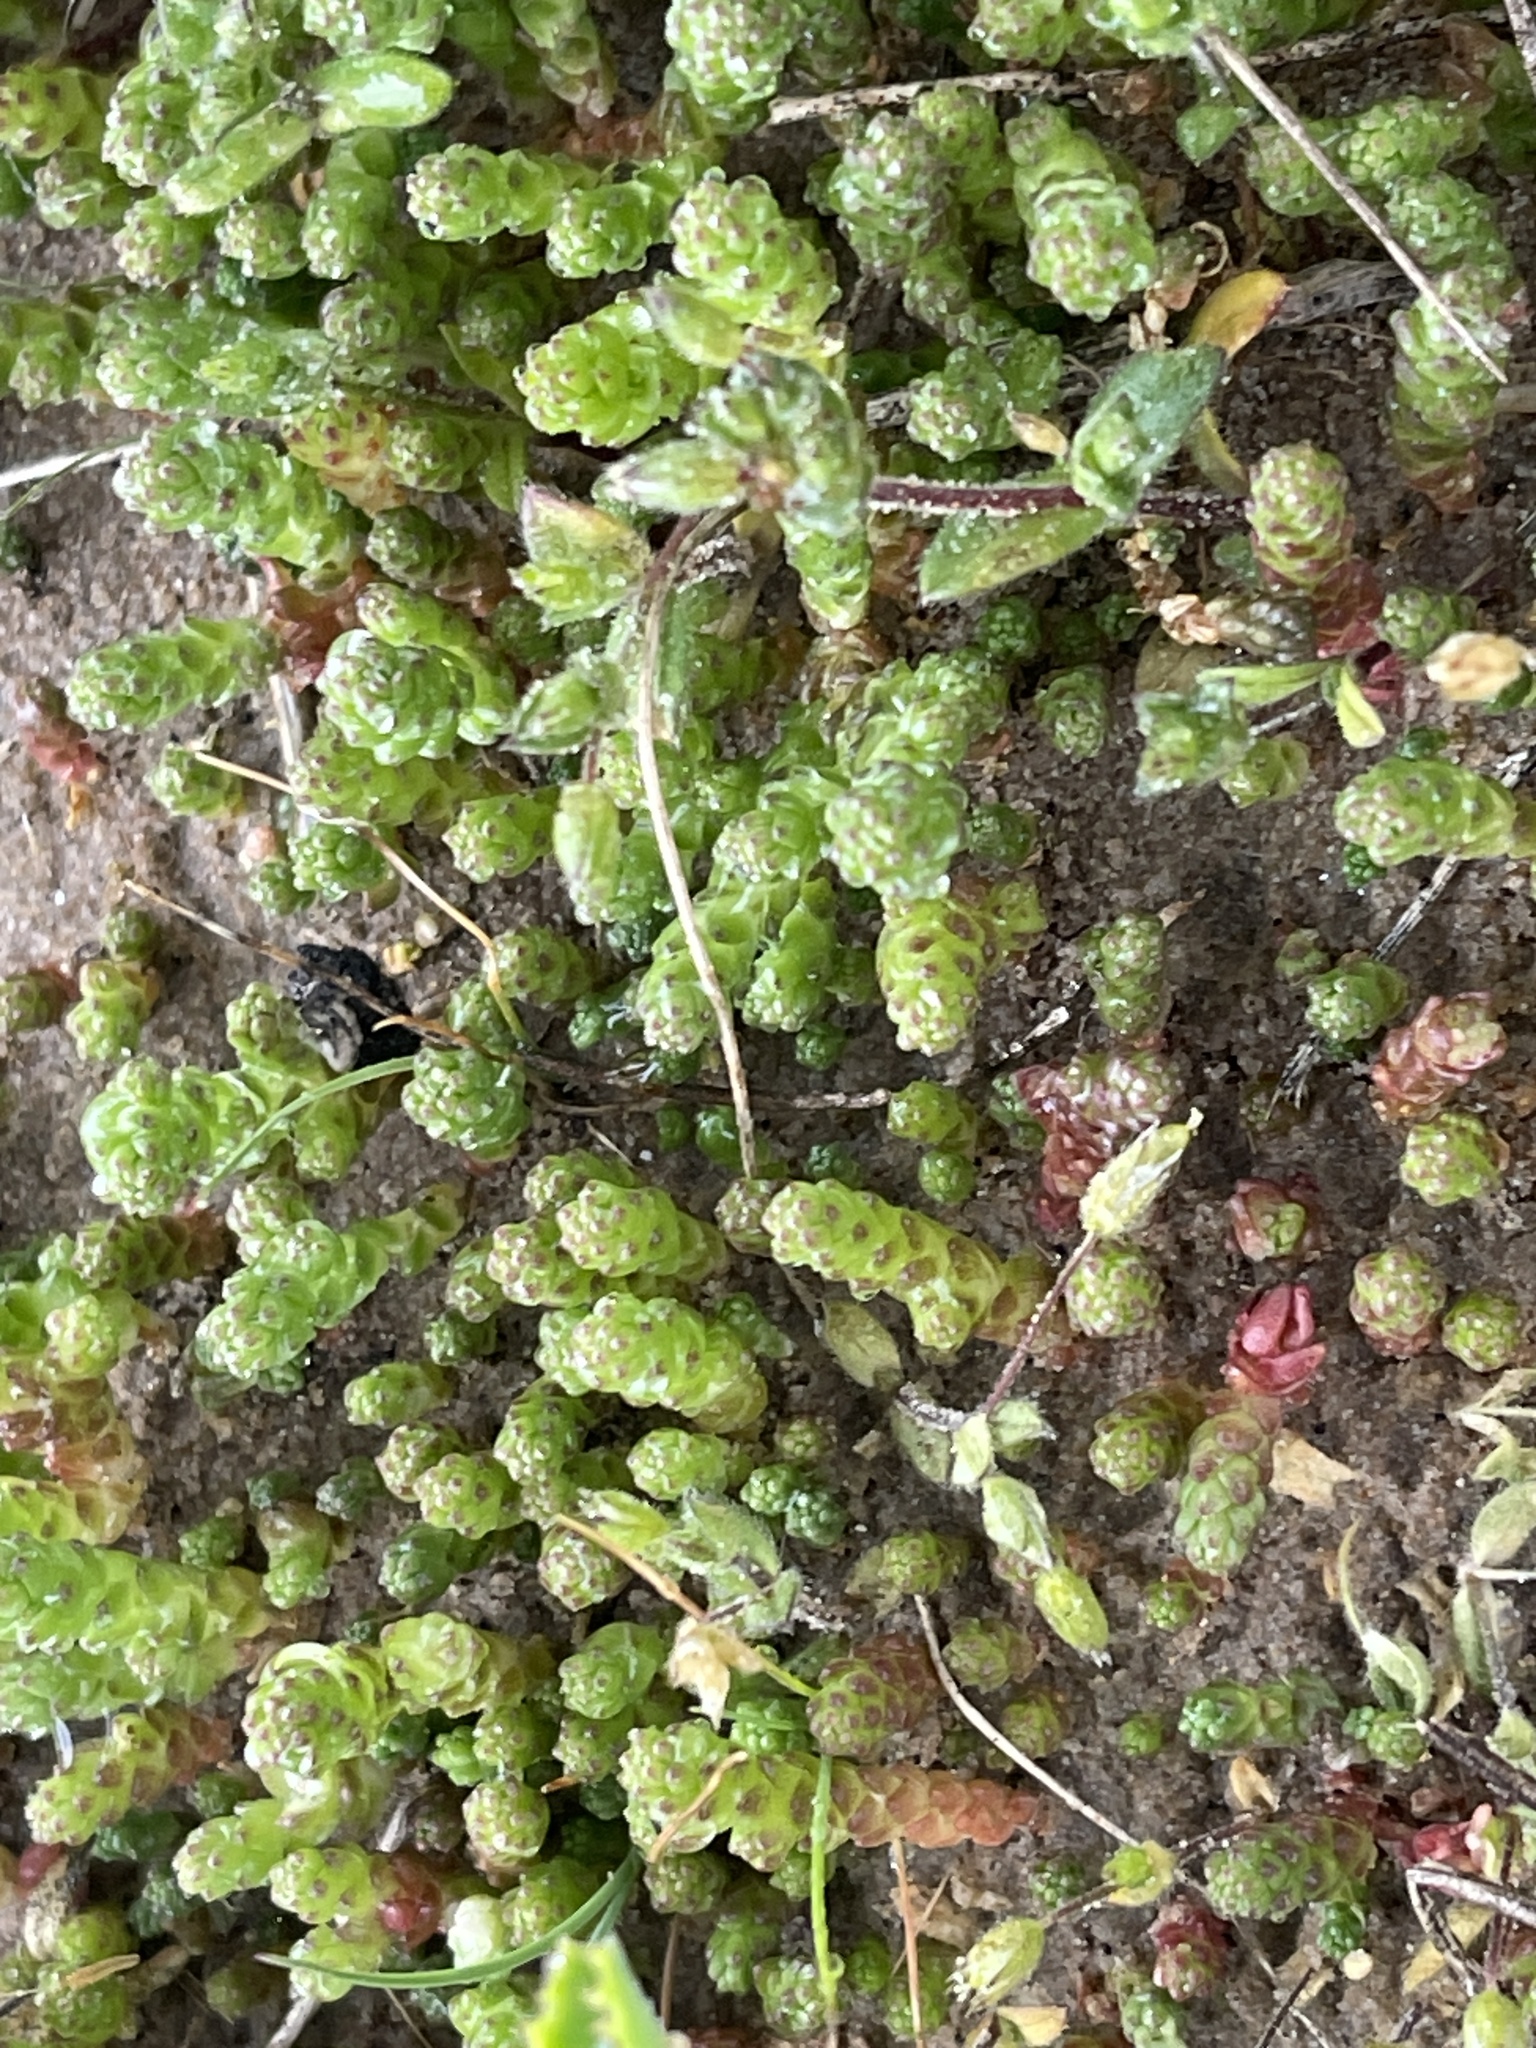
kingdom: Plantae
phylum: Tracheophyta
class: Magnoliopsida
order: Saxifragales
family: Crassulaceae
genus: Sedum
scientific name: Sedum acre
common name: Biting stonecrop
